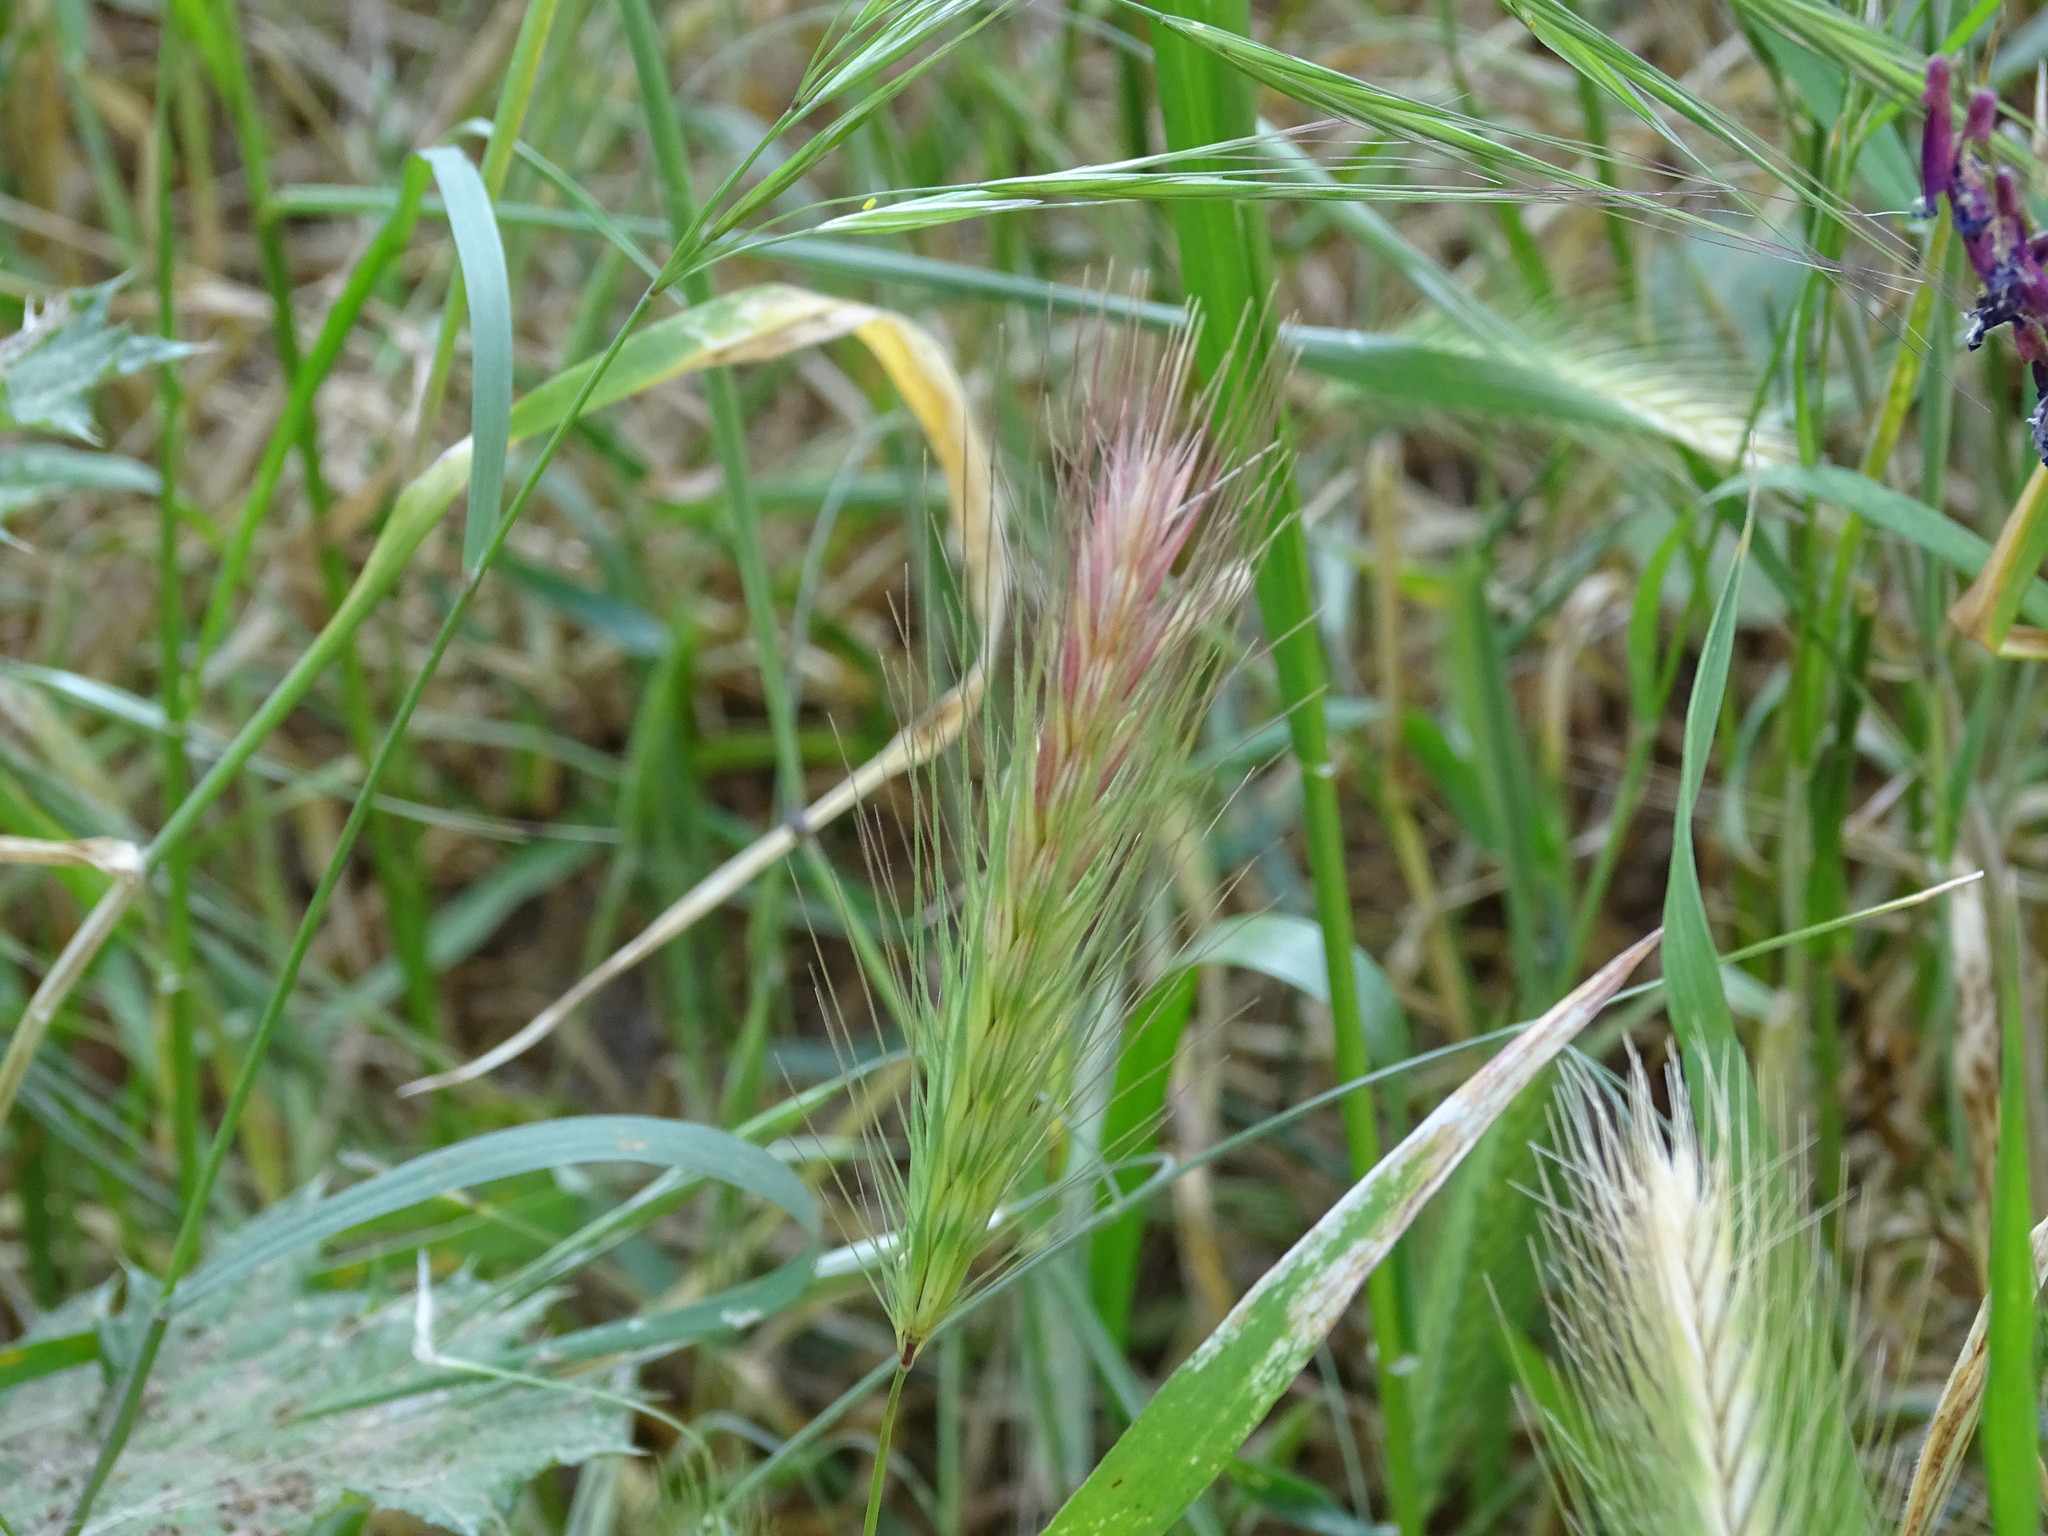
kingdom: Plantae
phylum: Tracheophyta
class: Liliopsida
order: Poales
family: Poaceae
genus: Hordeum
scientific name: Hordeum murinum
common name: Wall barley
